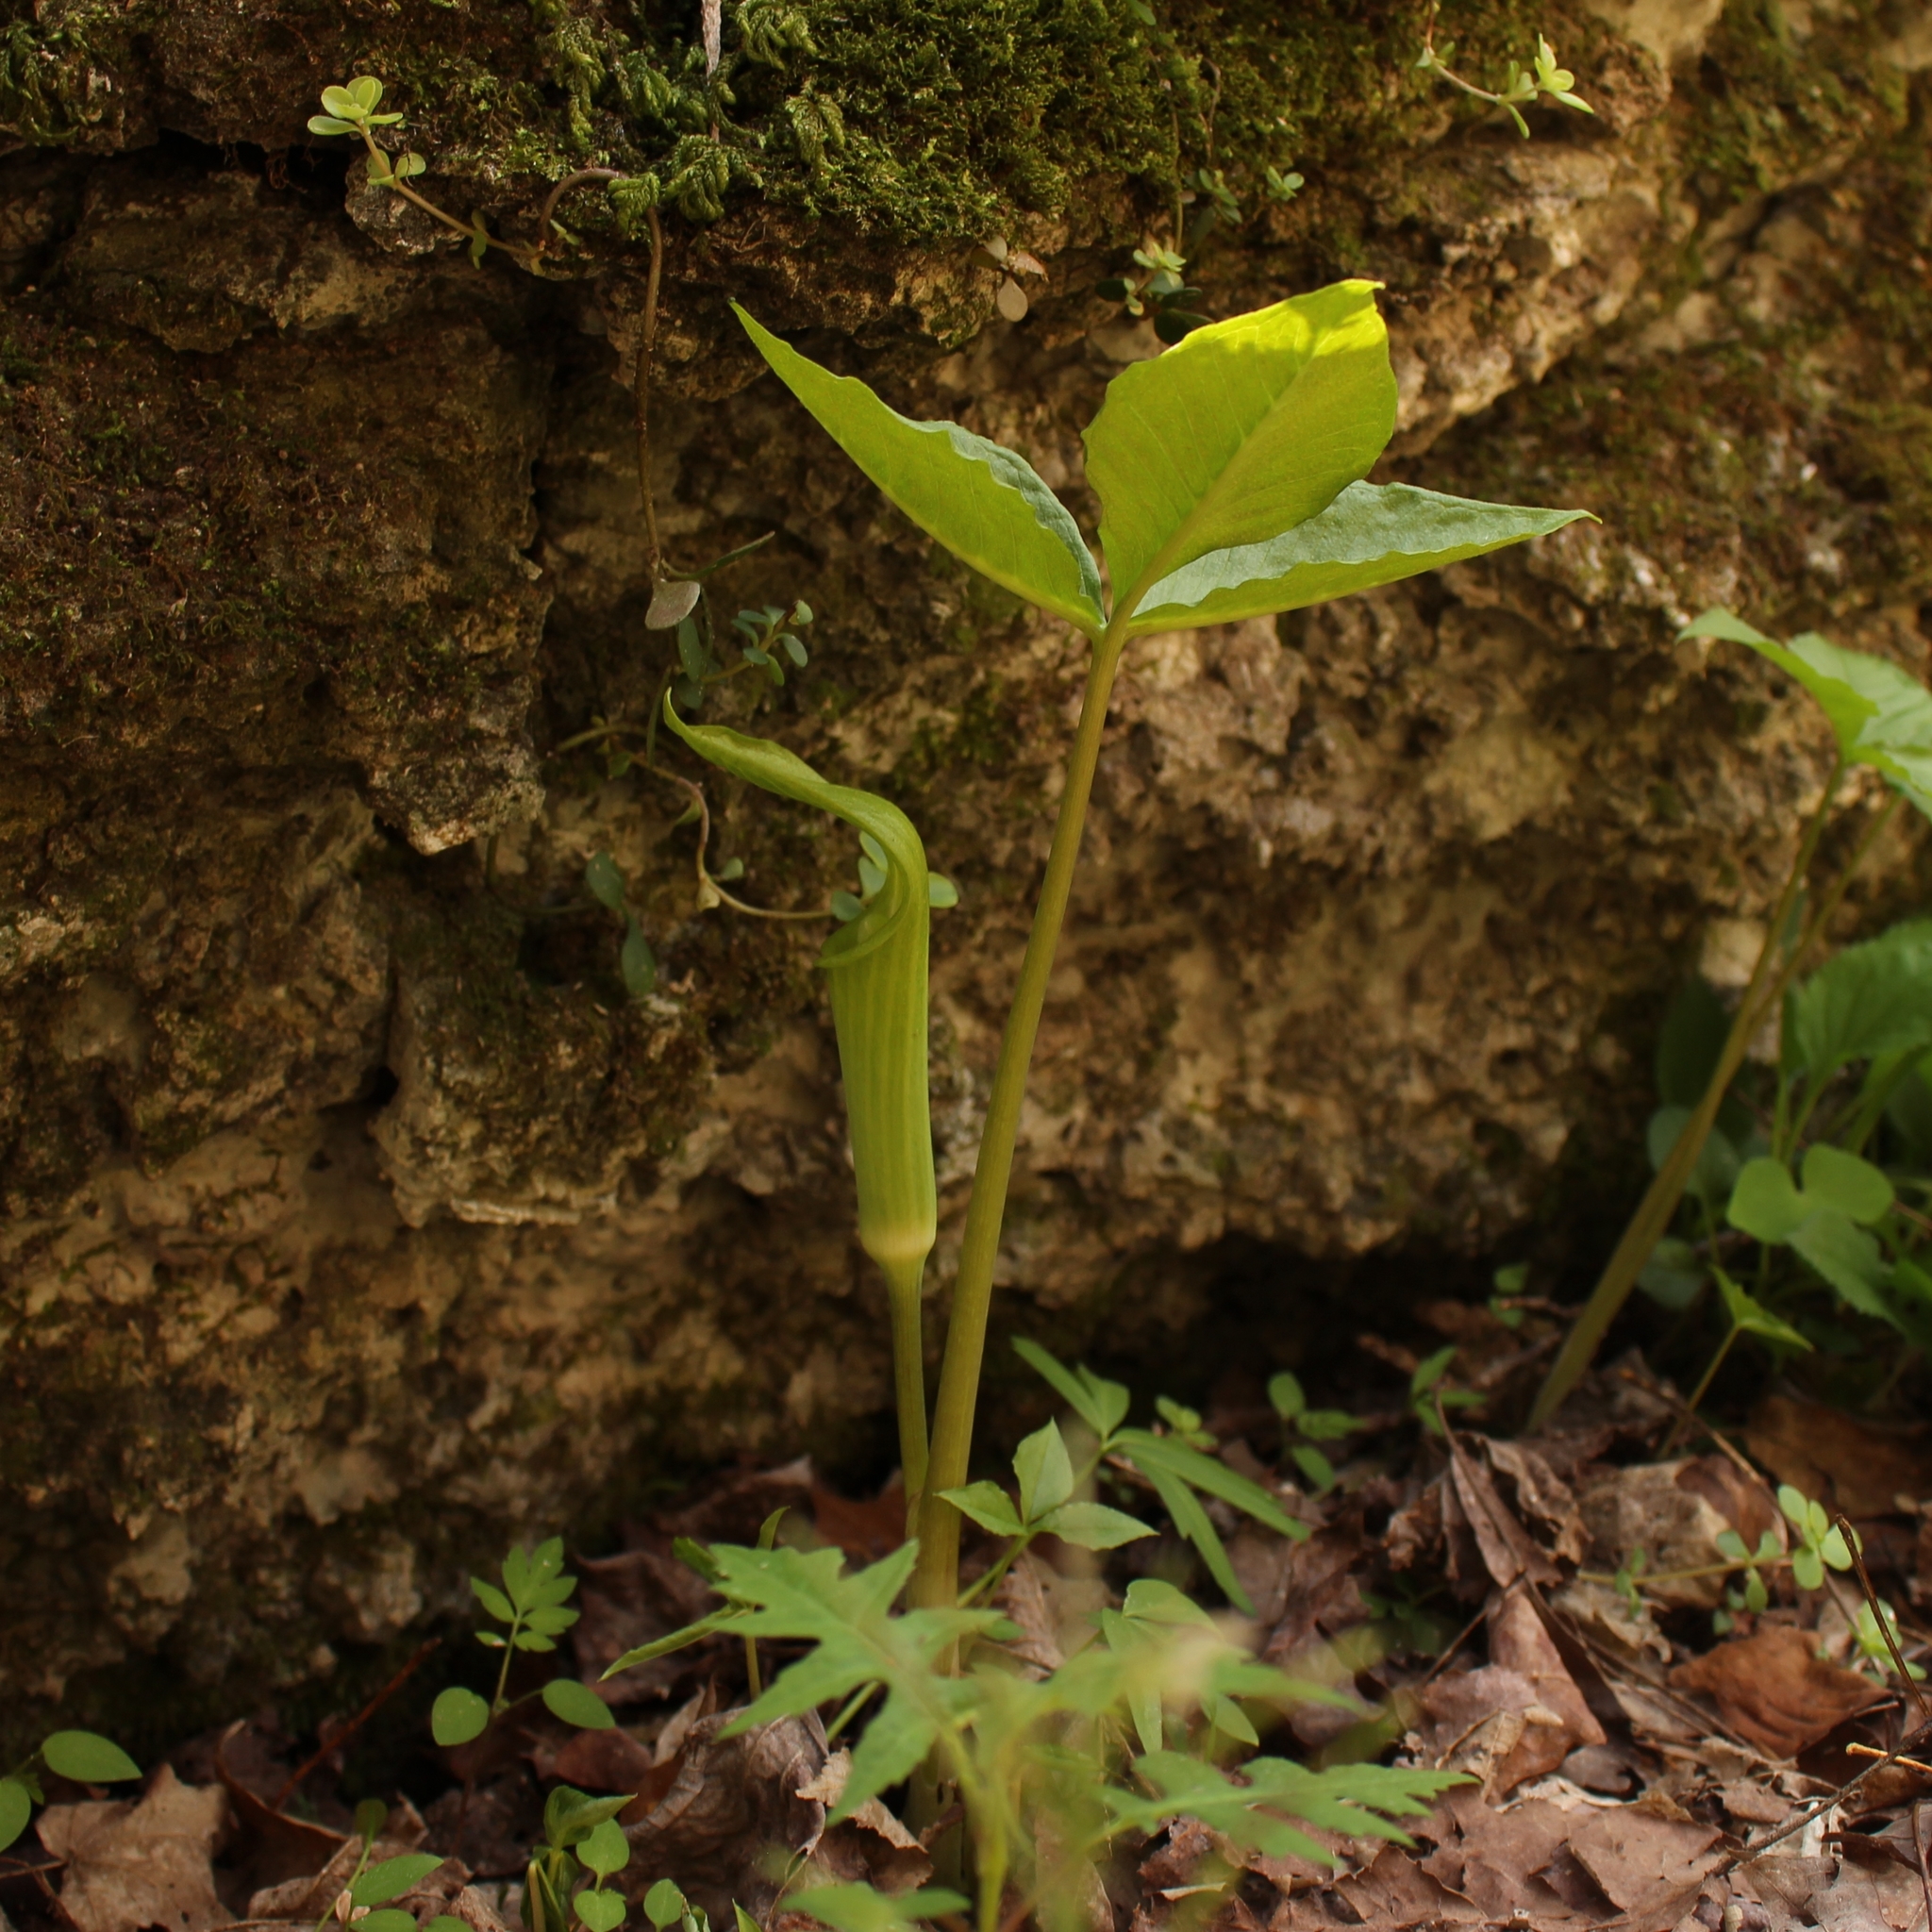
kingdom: Plantae
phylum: Tracheophyta
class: Liliopsida
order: Alismatales
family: Araceae
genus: Arisaema
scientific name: Arisaema triphyllum
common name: Jack-in-the-pulpit
